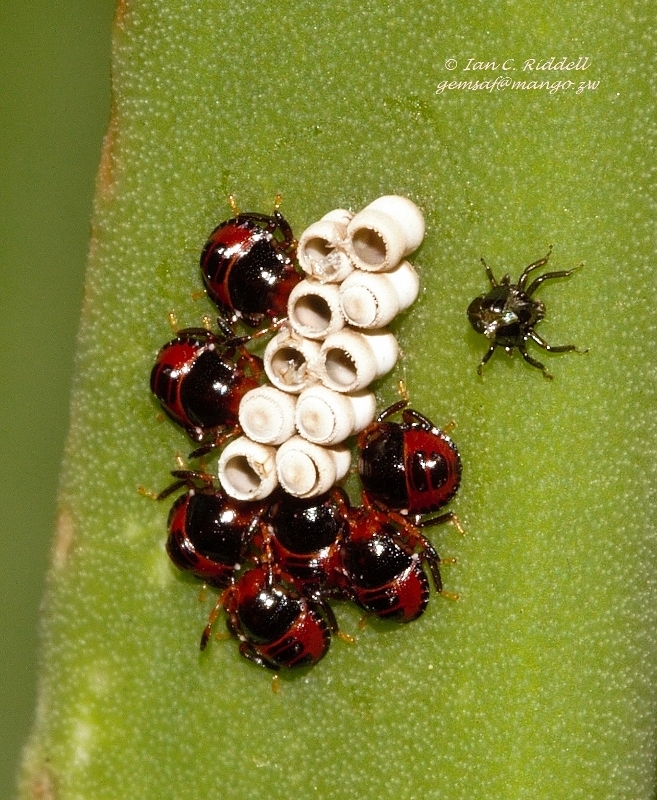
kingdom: Animalia
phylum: Arthropoda
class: Insecta
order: Hemiptera
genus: Flaminia
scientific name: Flaminia
